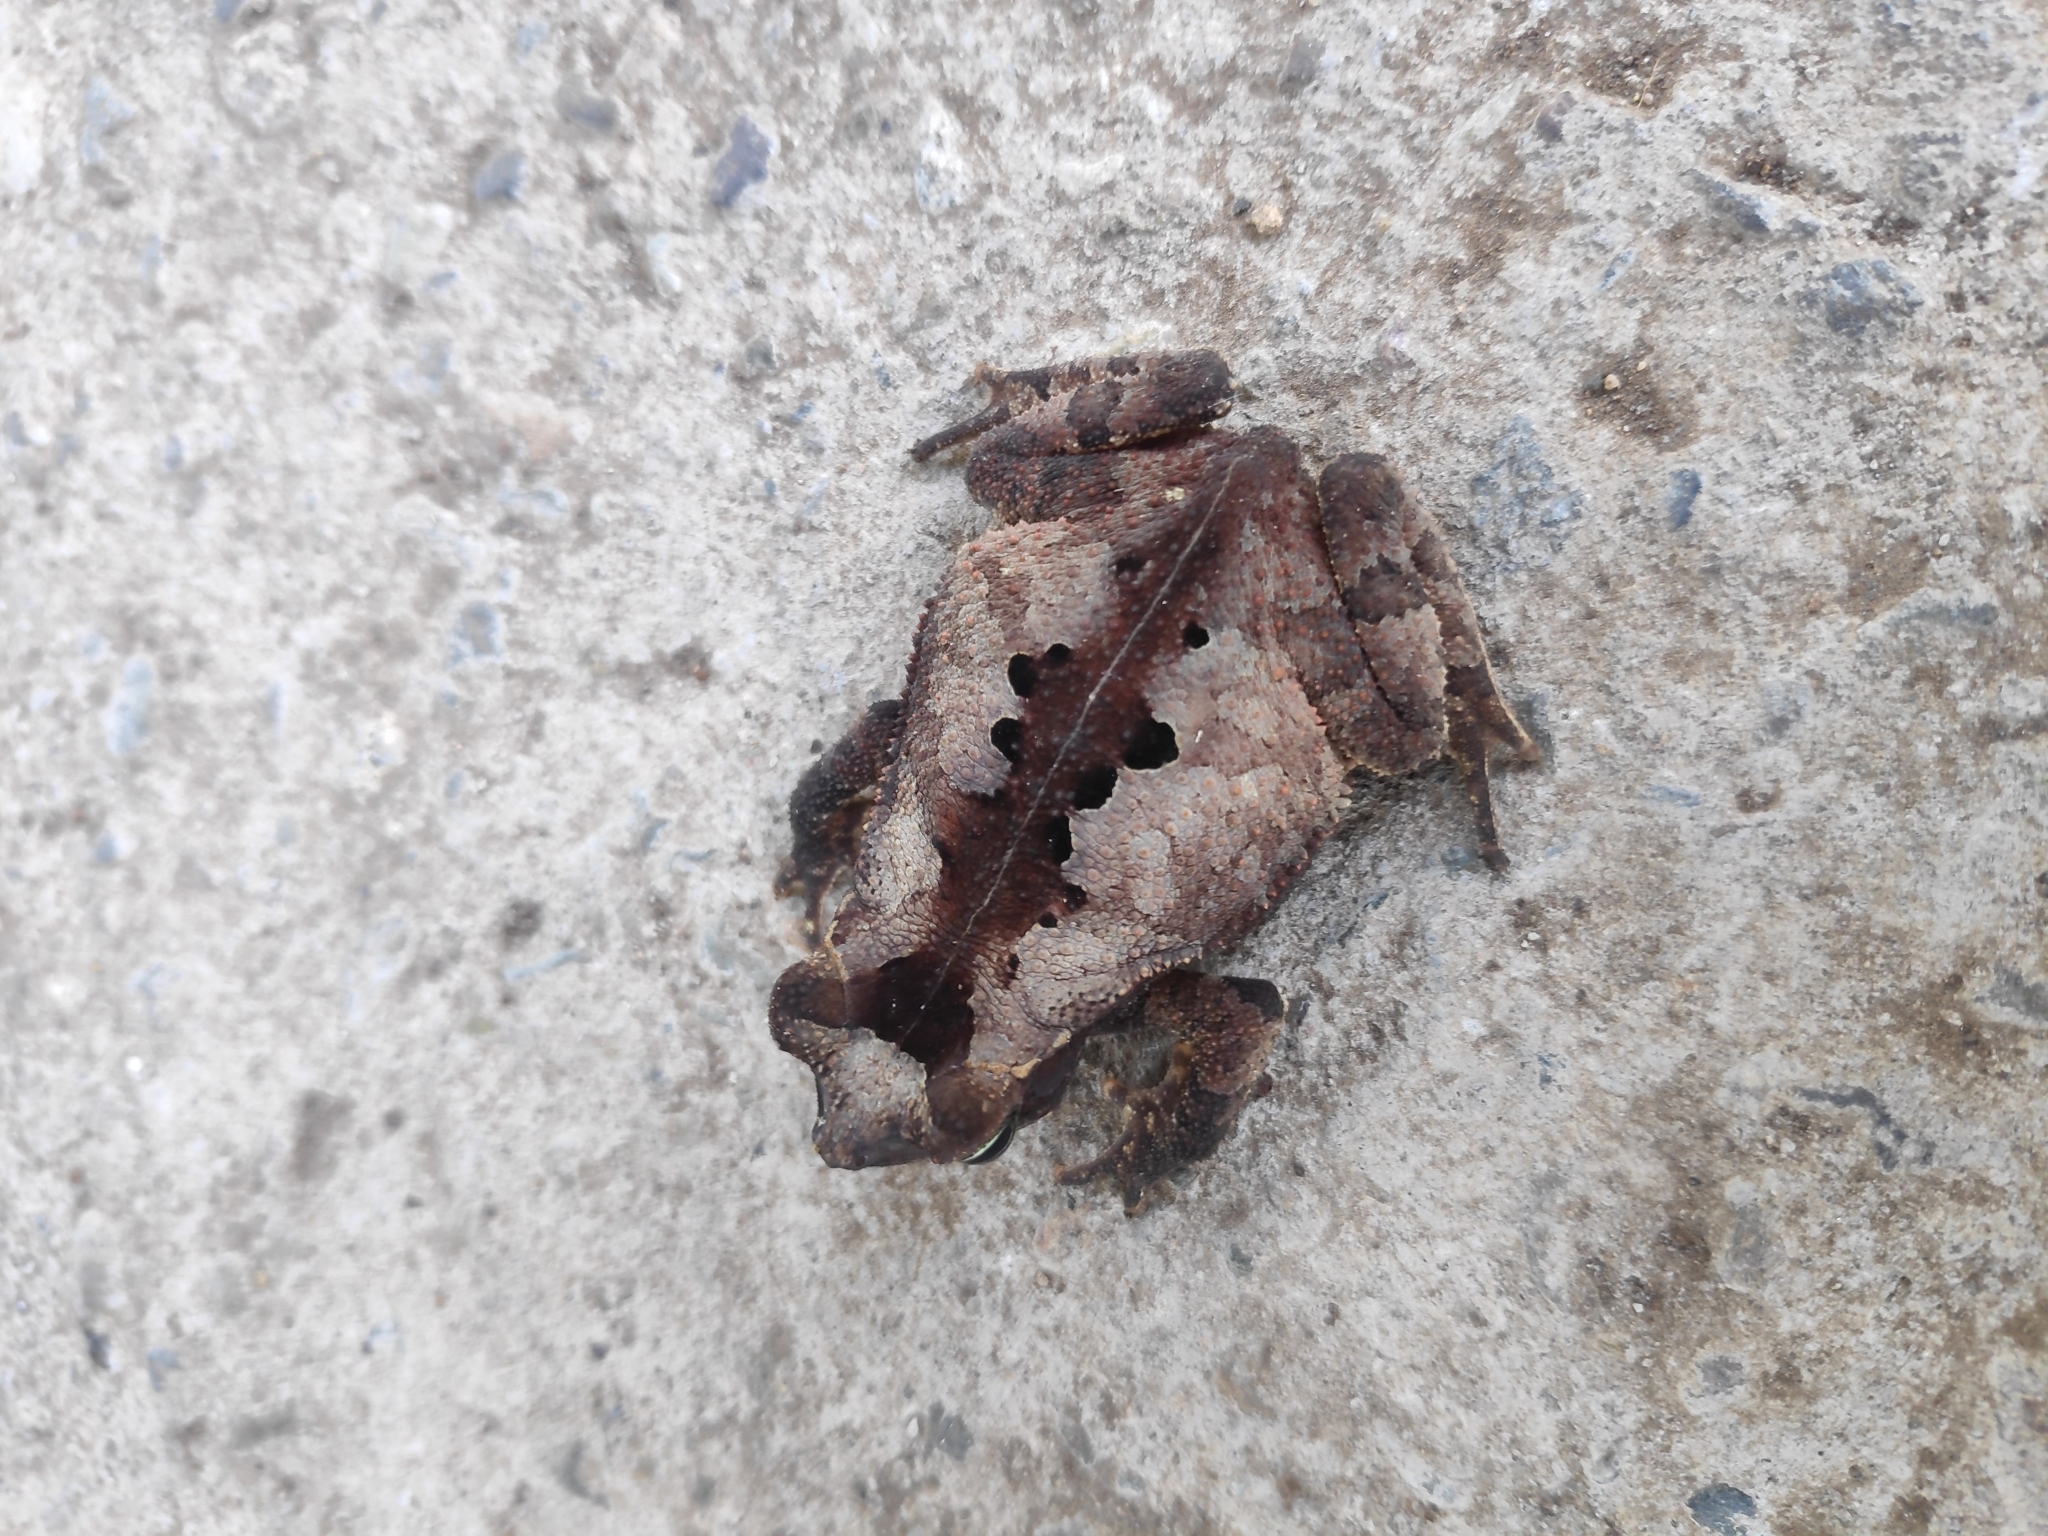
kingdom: Animalia
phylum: Chordata
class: Amphibia
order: Anura
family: Bufonidae
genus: Rhinella
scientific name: Rhinella alata
